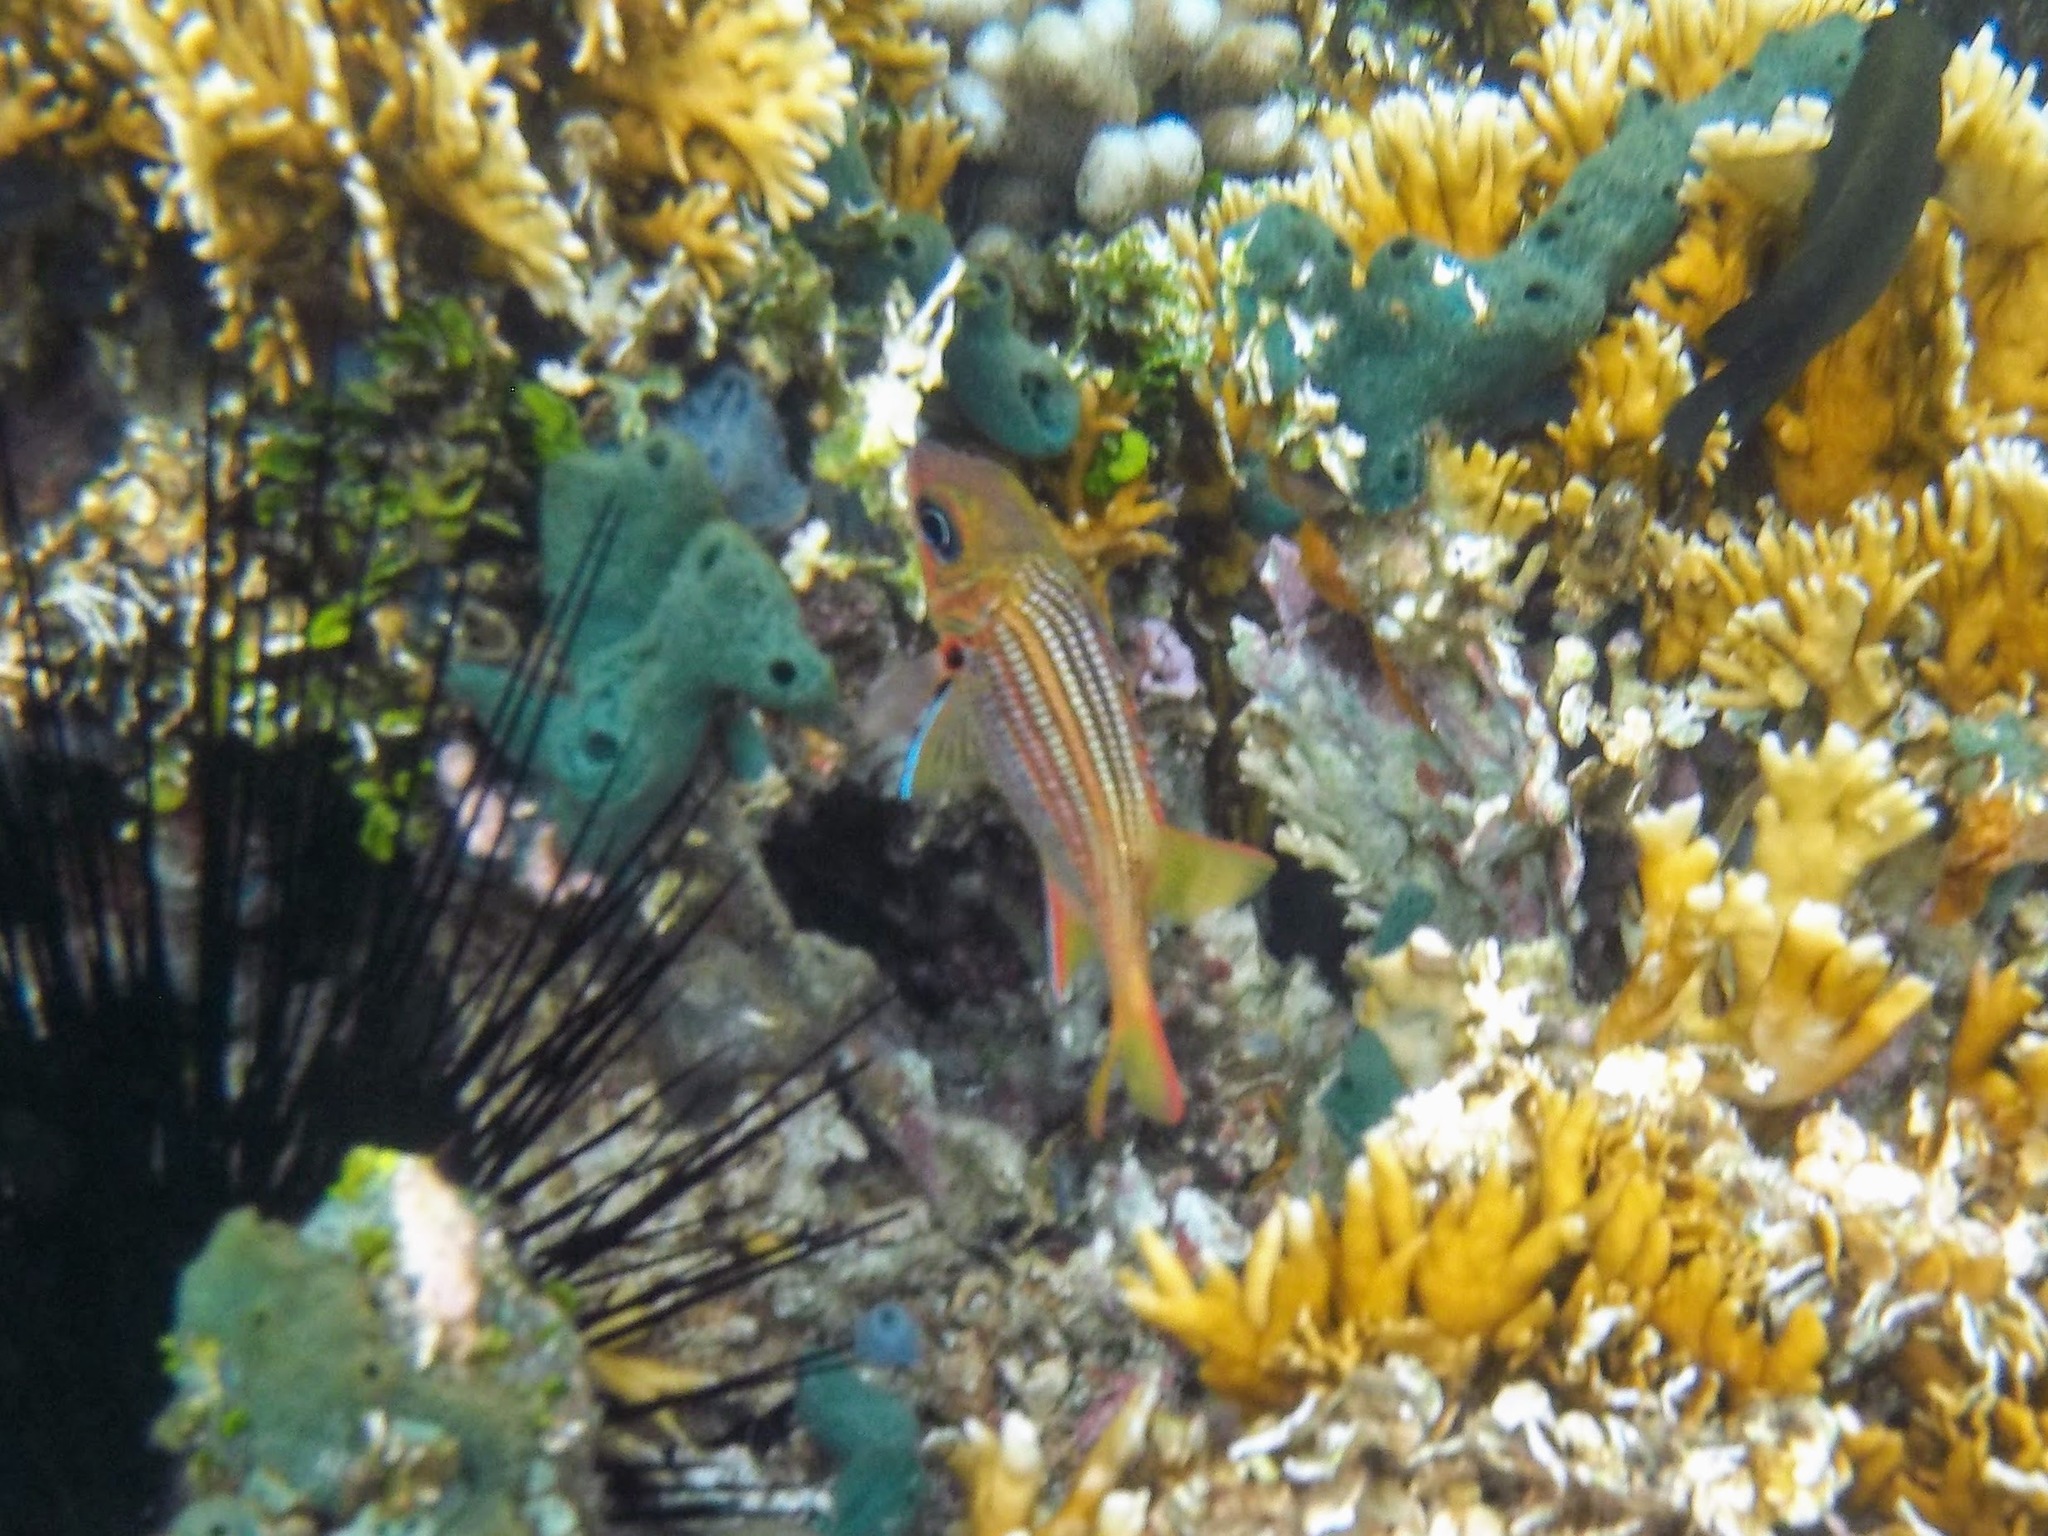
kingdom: Animalia
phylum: Chordata
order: Beryciformes
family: Holocentridae
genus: Neoniphon
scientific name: Neoniphon vexillarium
